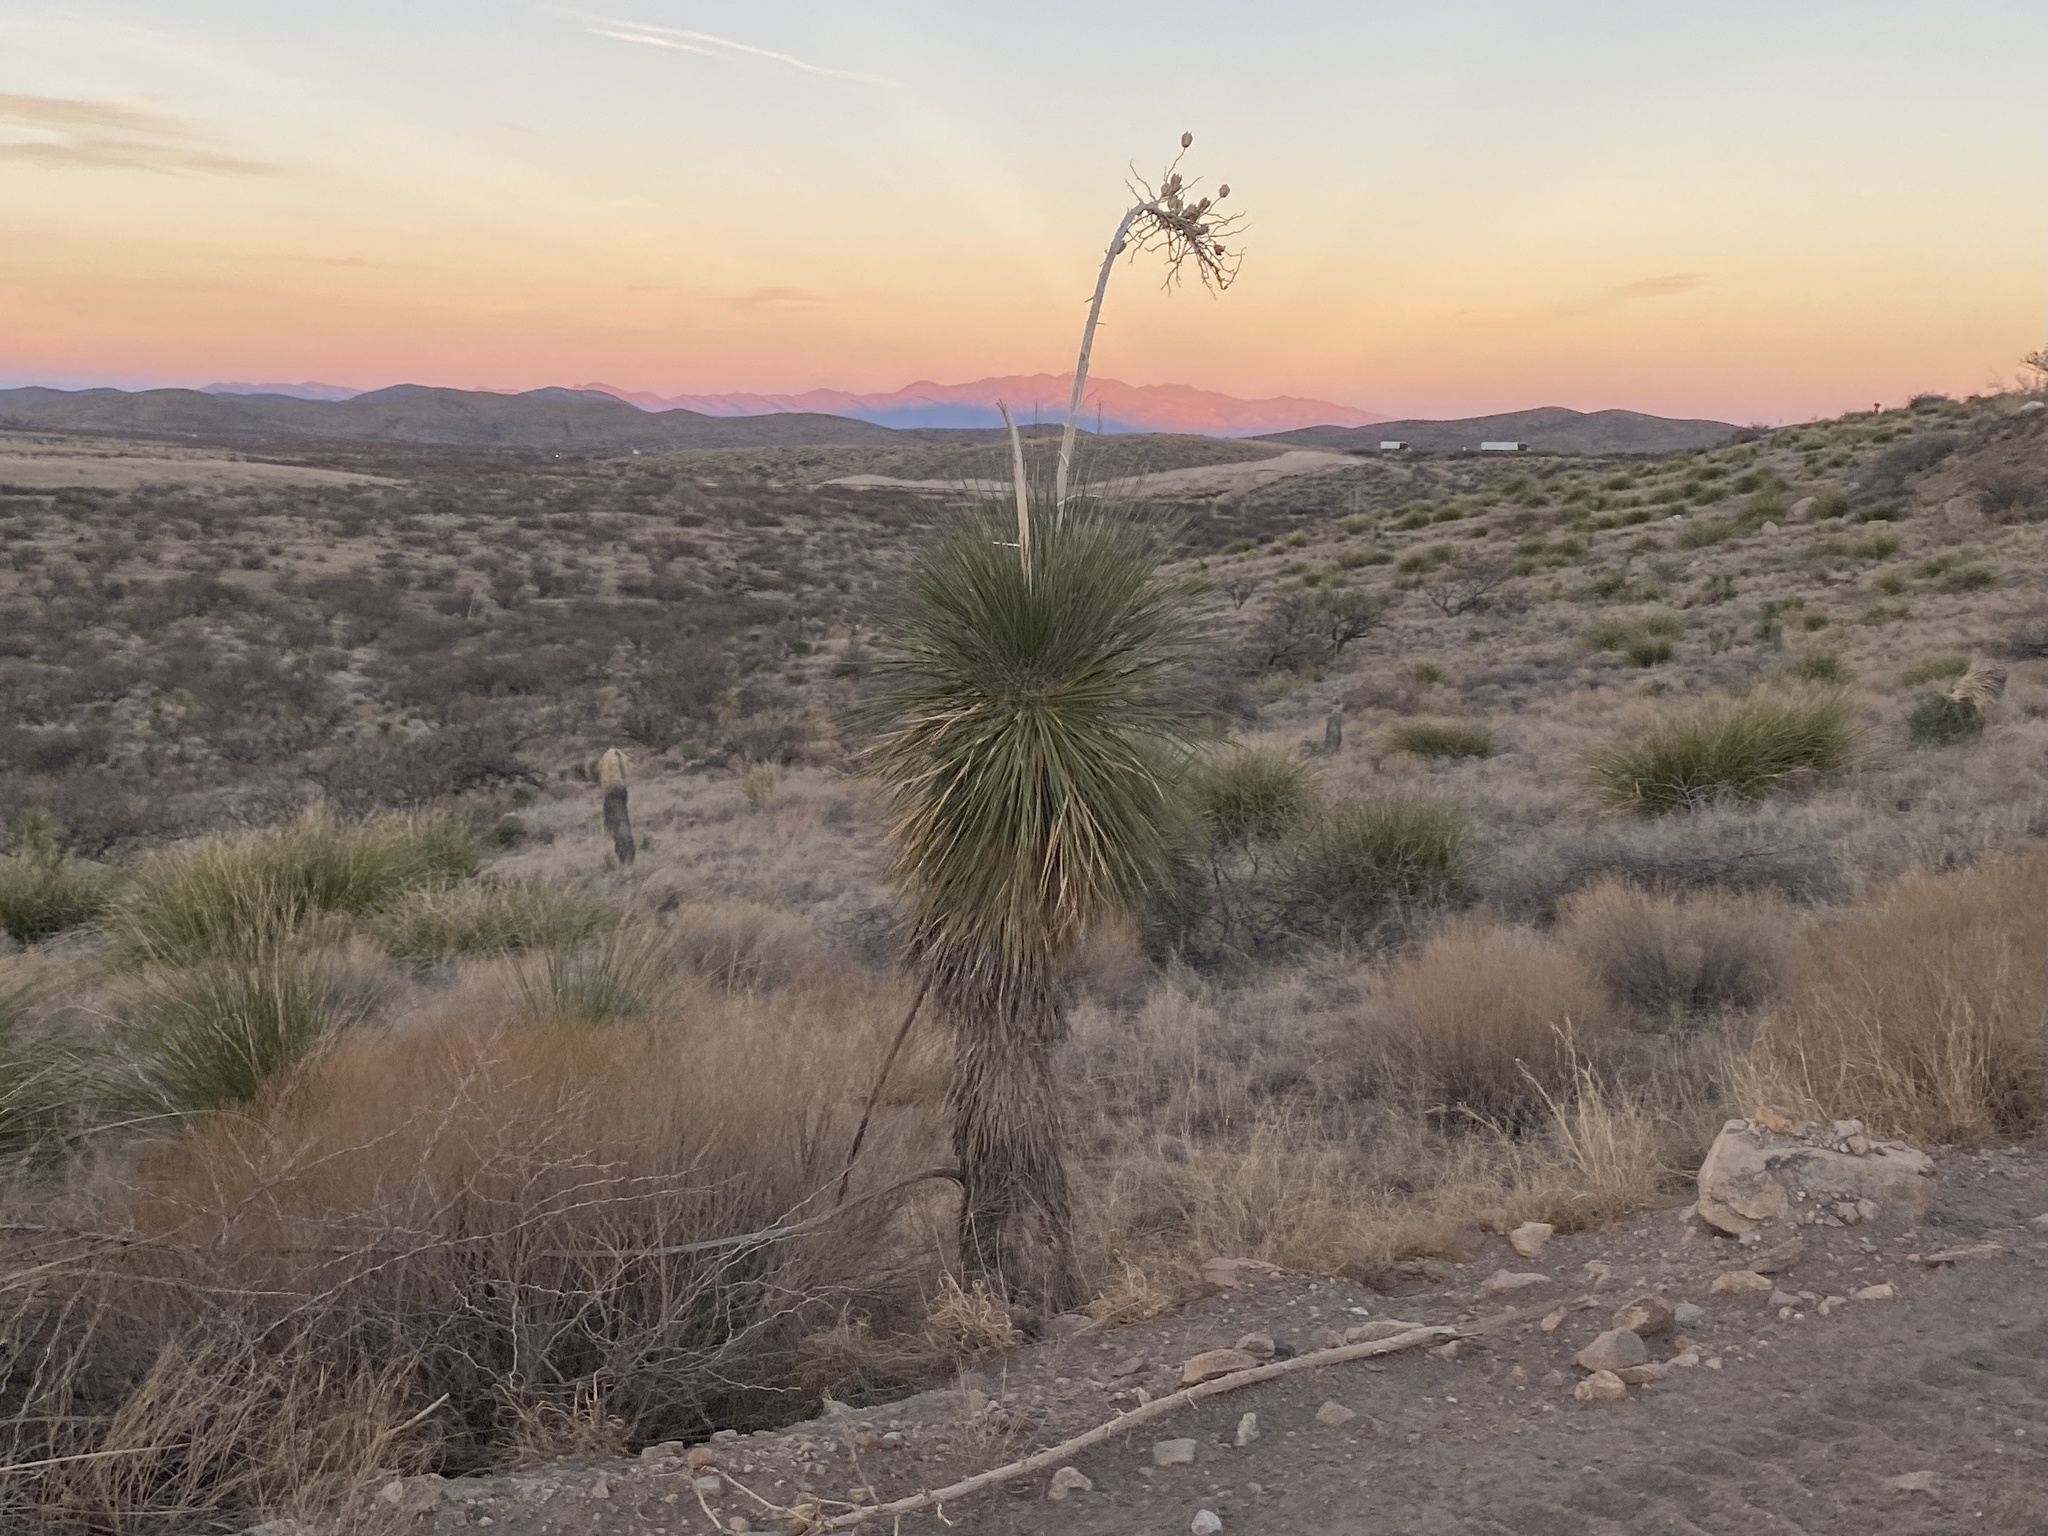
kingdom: Plantae
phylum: Tracheophyta
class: Liliopsida
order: Asparagales
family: Asparagaceae
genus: Yucca
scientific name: Yucca elata
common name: Palmella
